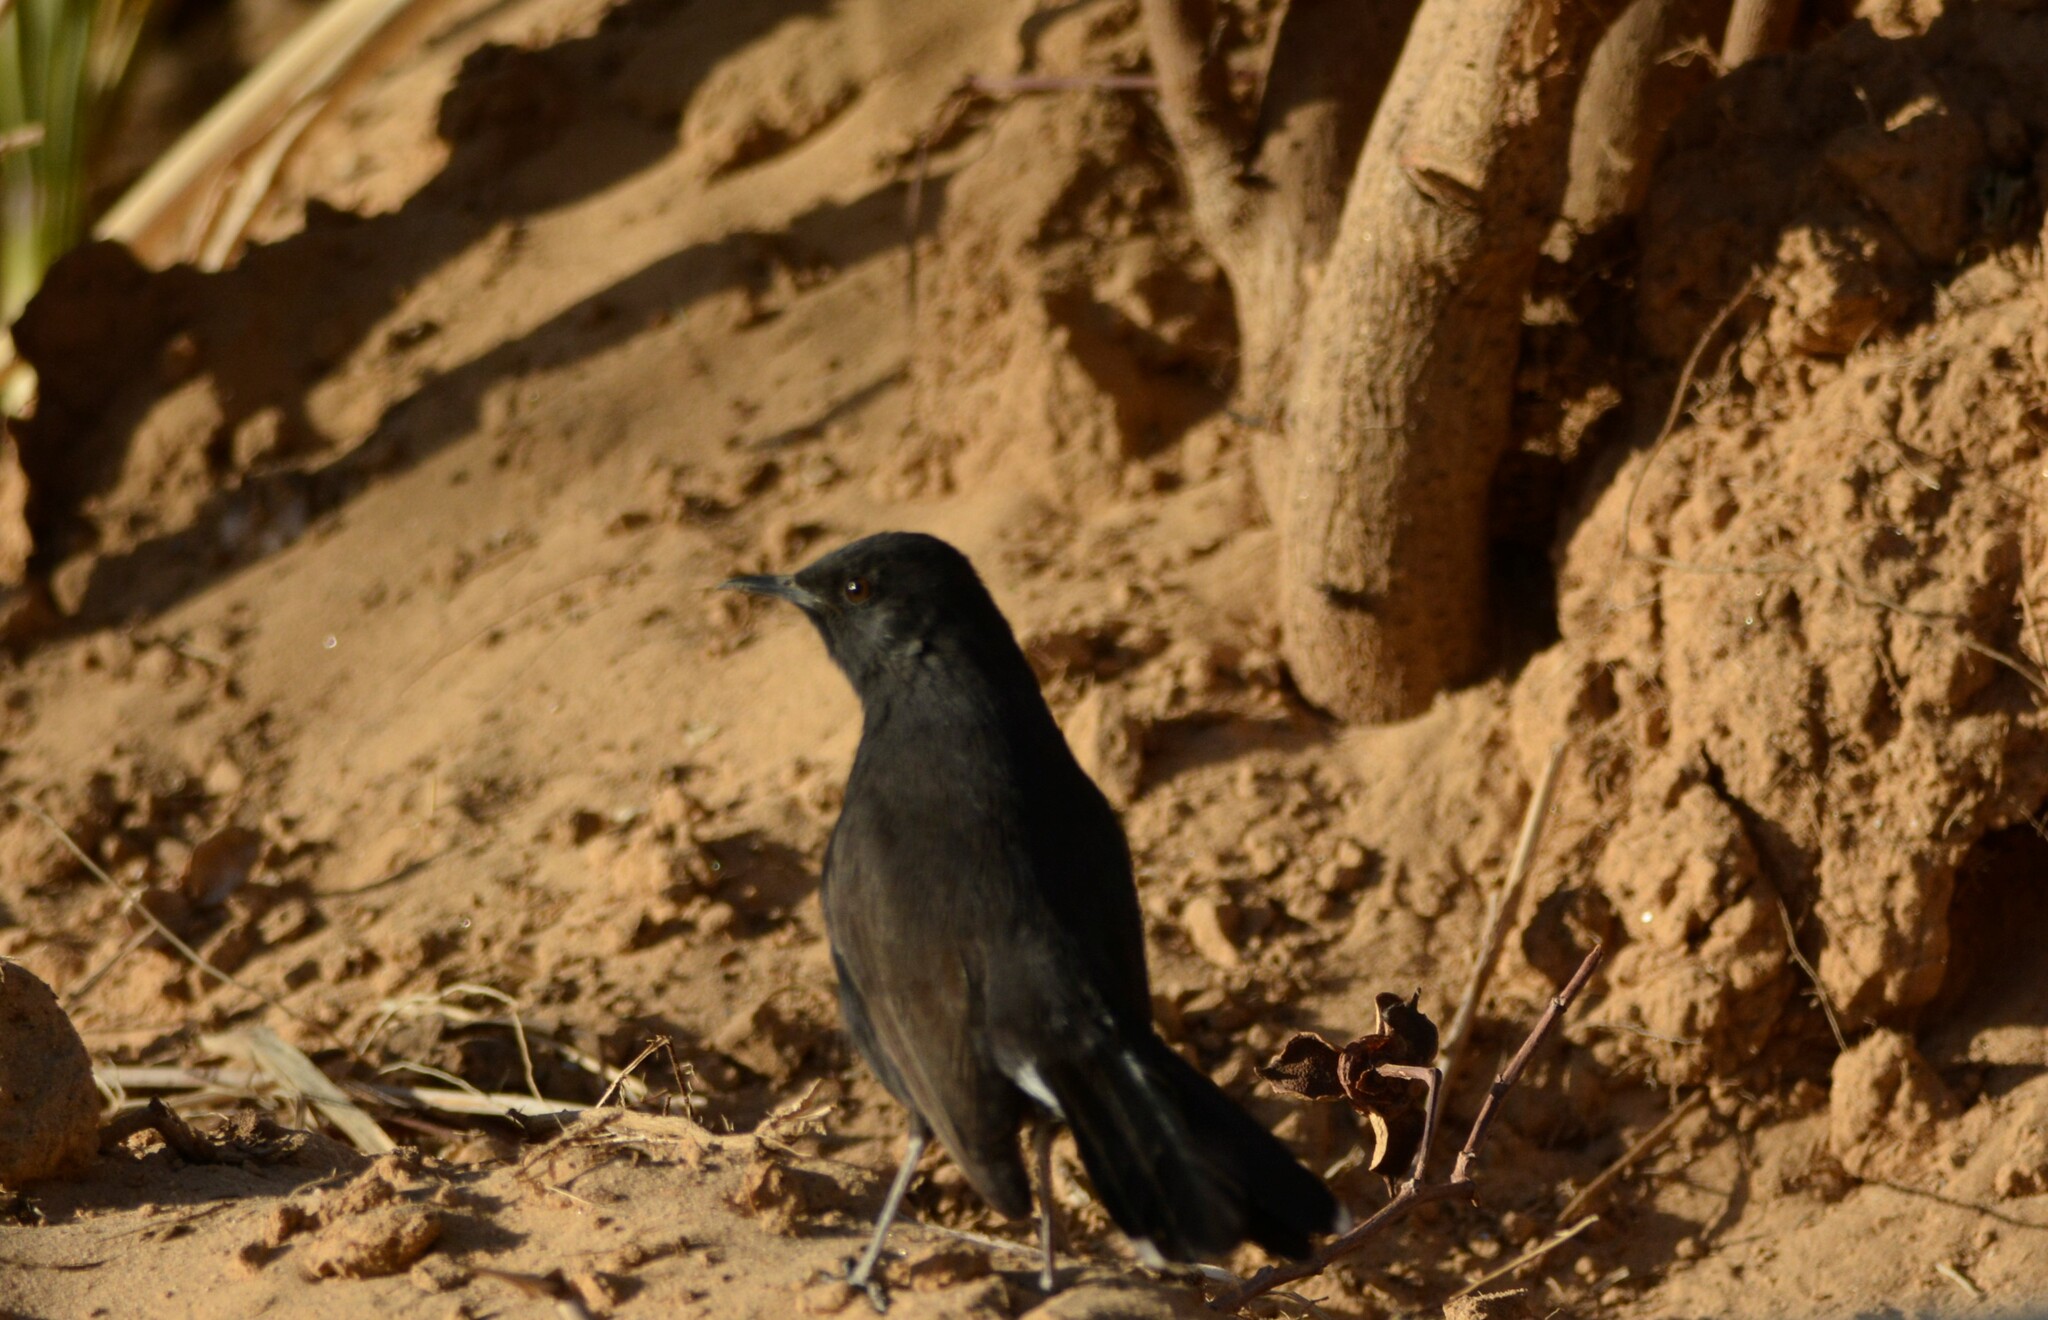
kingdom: Animalia
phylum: Chordata
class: Aves
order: Passeriformes
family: Muscicapidae
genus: Cercotrichas
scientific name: Cercotrichas podobe
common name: Black scrub robin
